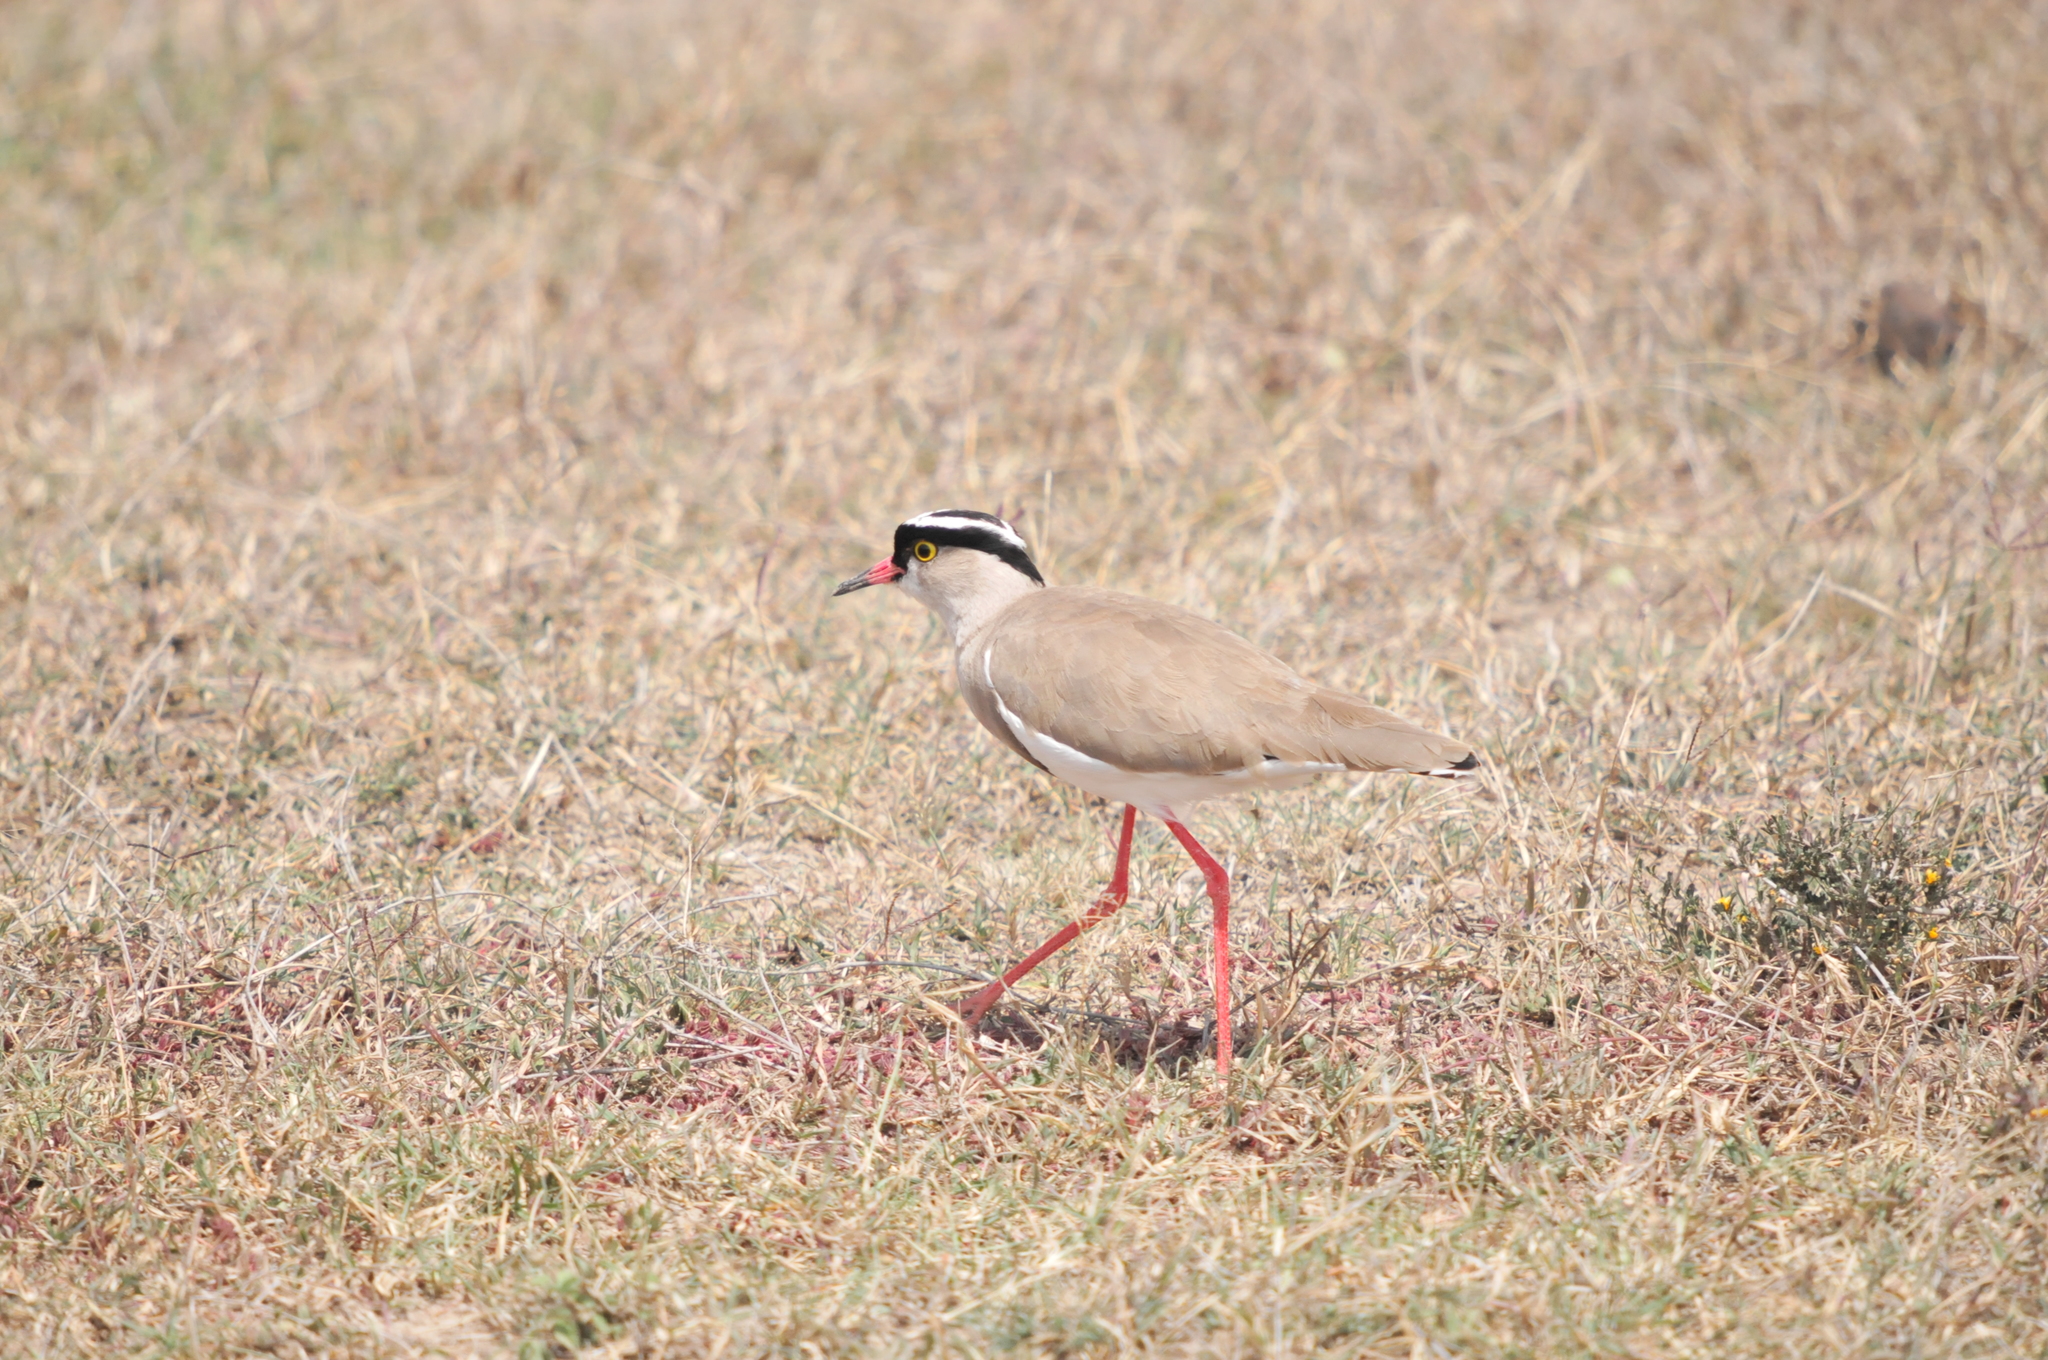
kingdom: Animalia
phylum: Chordata
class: Aves
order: Charadriiformes
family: Charadriidae
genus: Vanellus
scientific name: Vanellus coronatus
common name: Crowned lapwing
